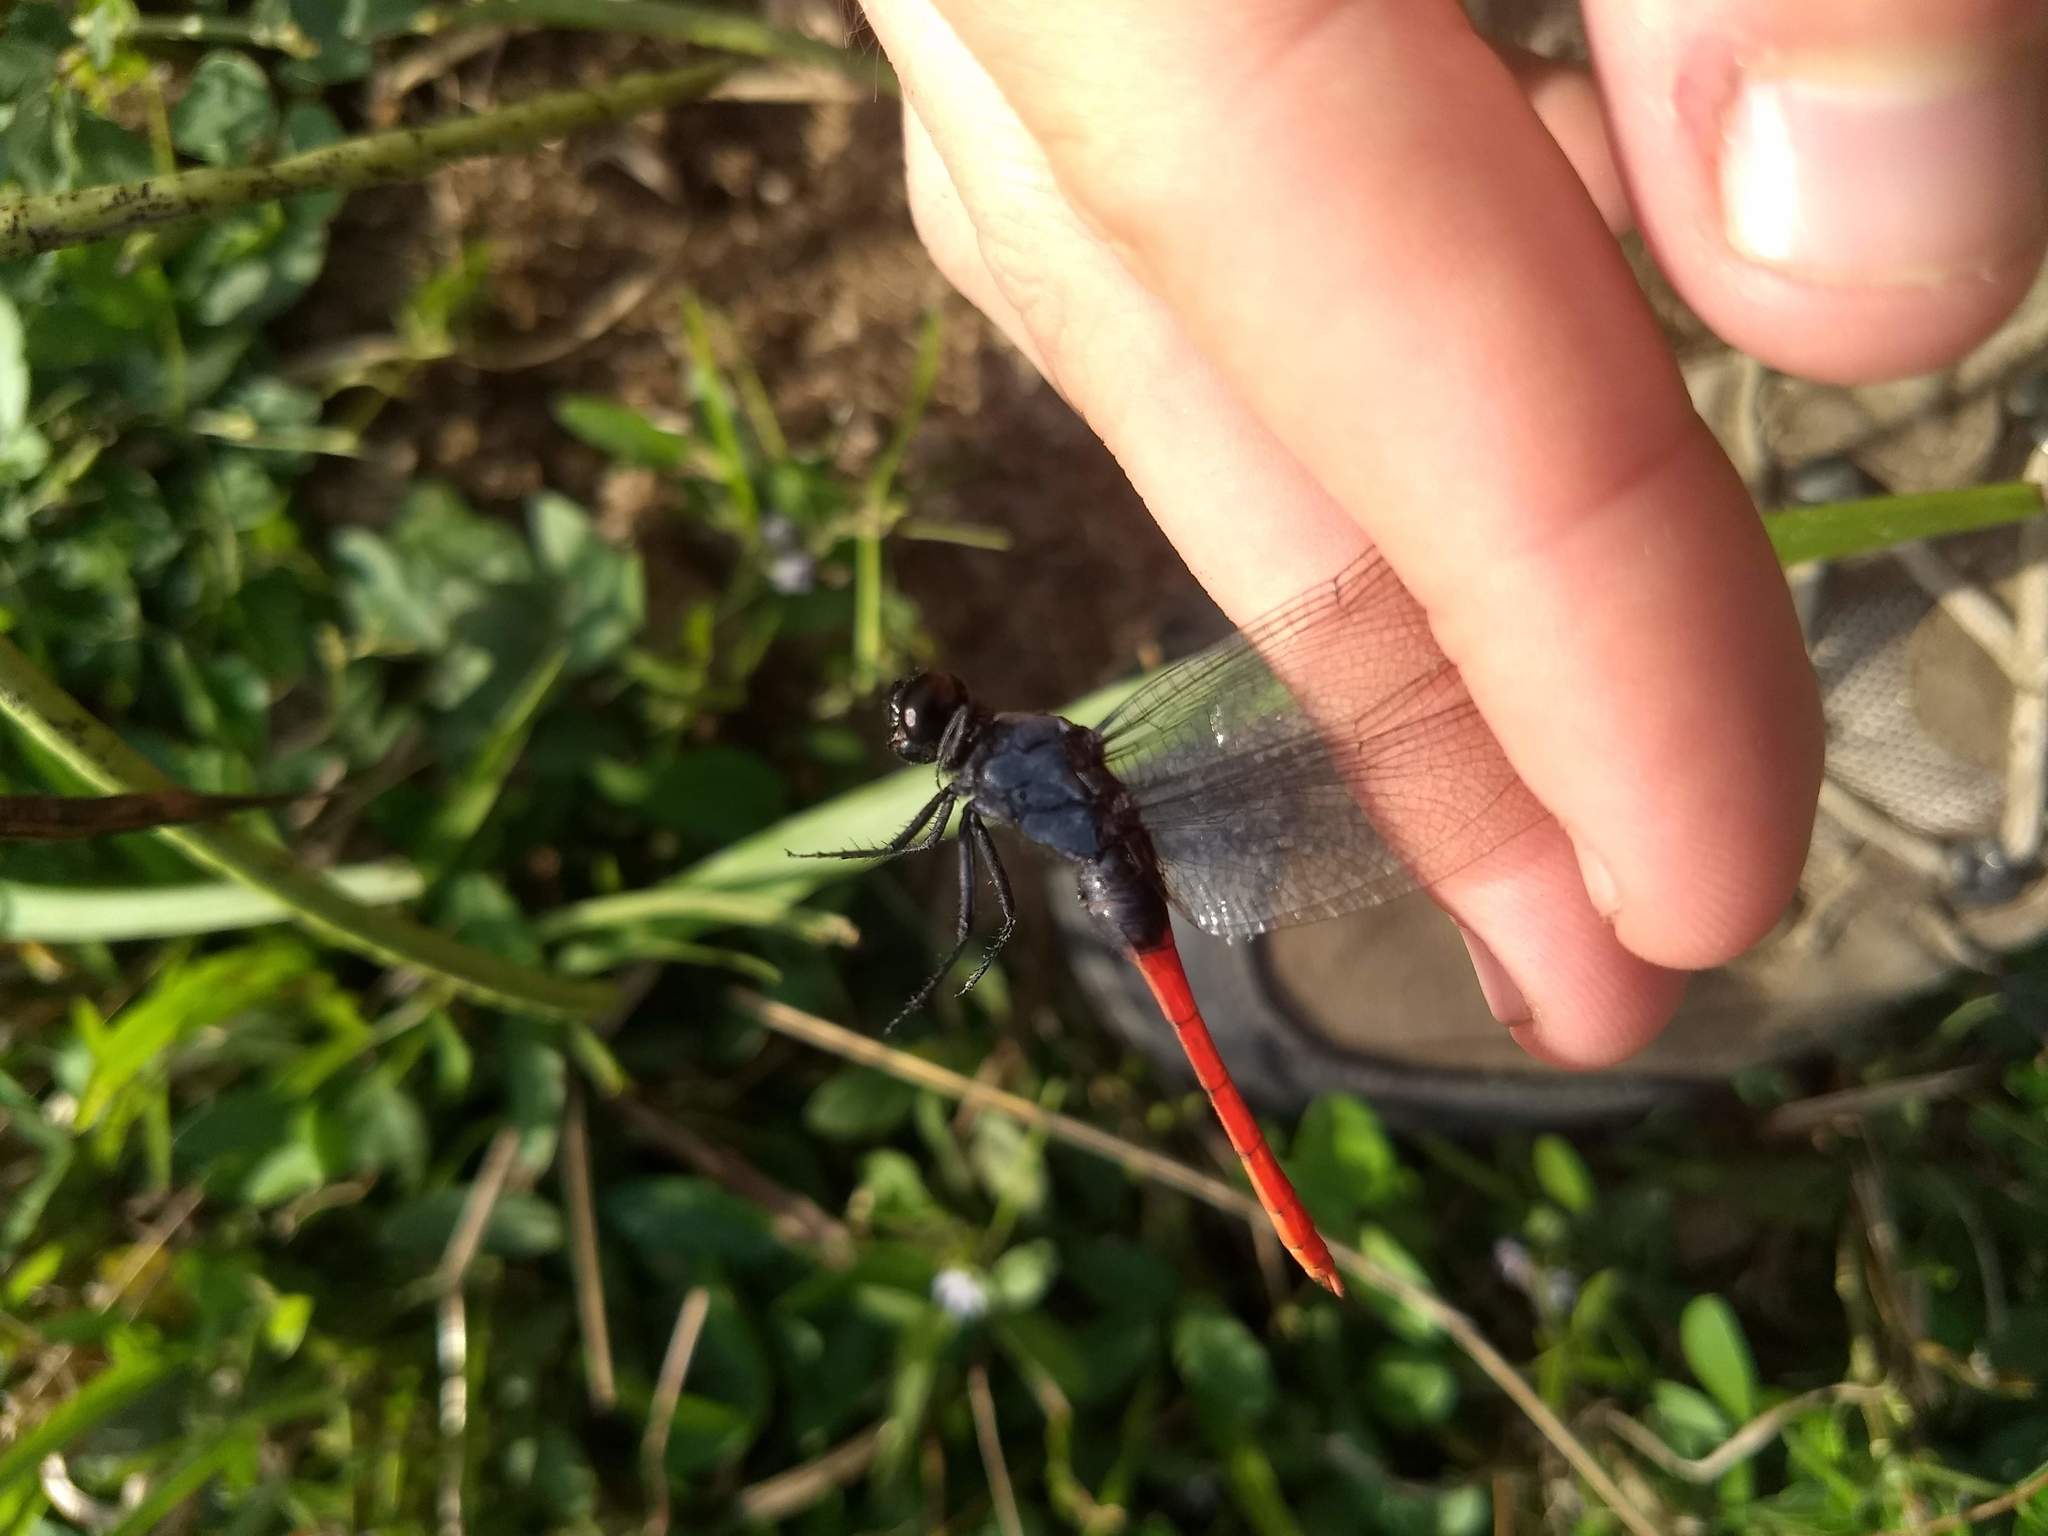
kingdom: Animalia
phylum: Arthropoda
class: Insecta
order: Odonata
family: Libellulidae
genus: Erythemis
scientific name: Erythemis peruviana
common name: Flame-tailed pondhawk
